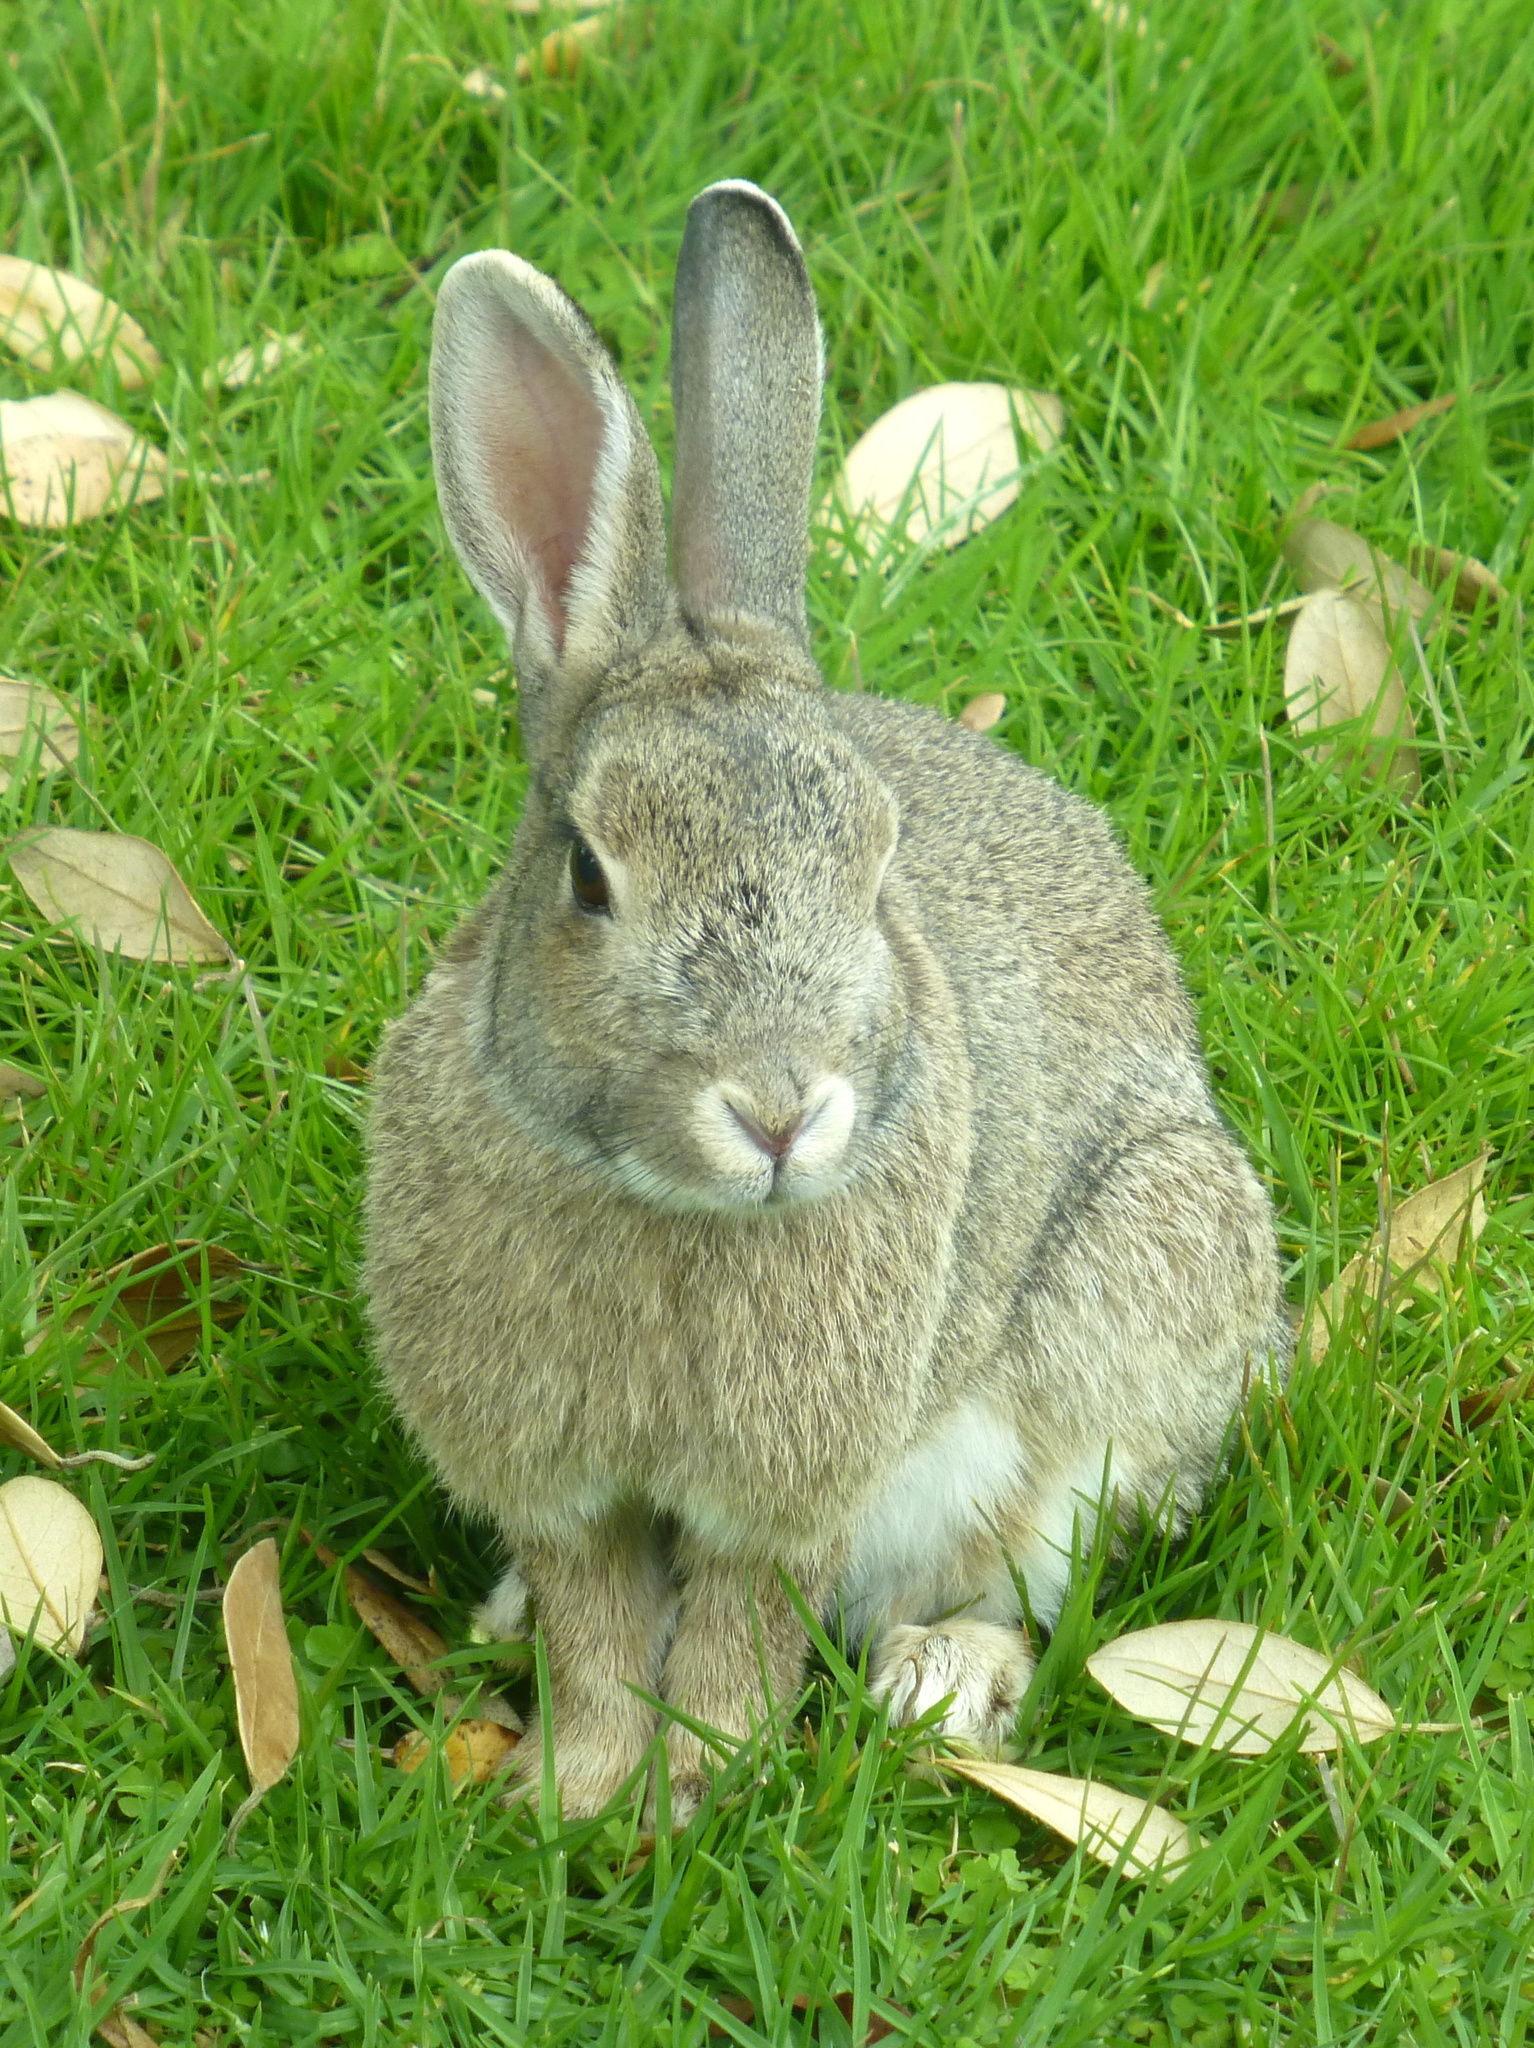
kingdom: Animalia
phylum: Chordata
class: Mammalia
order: Lagomorpha
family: Leporidae
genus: Oryctolagus
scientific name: Oryctolagus cuniculus
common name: European rabbit
